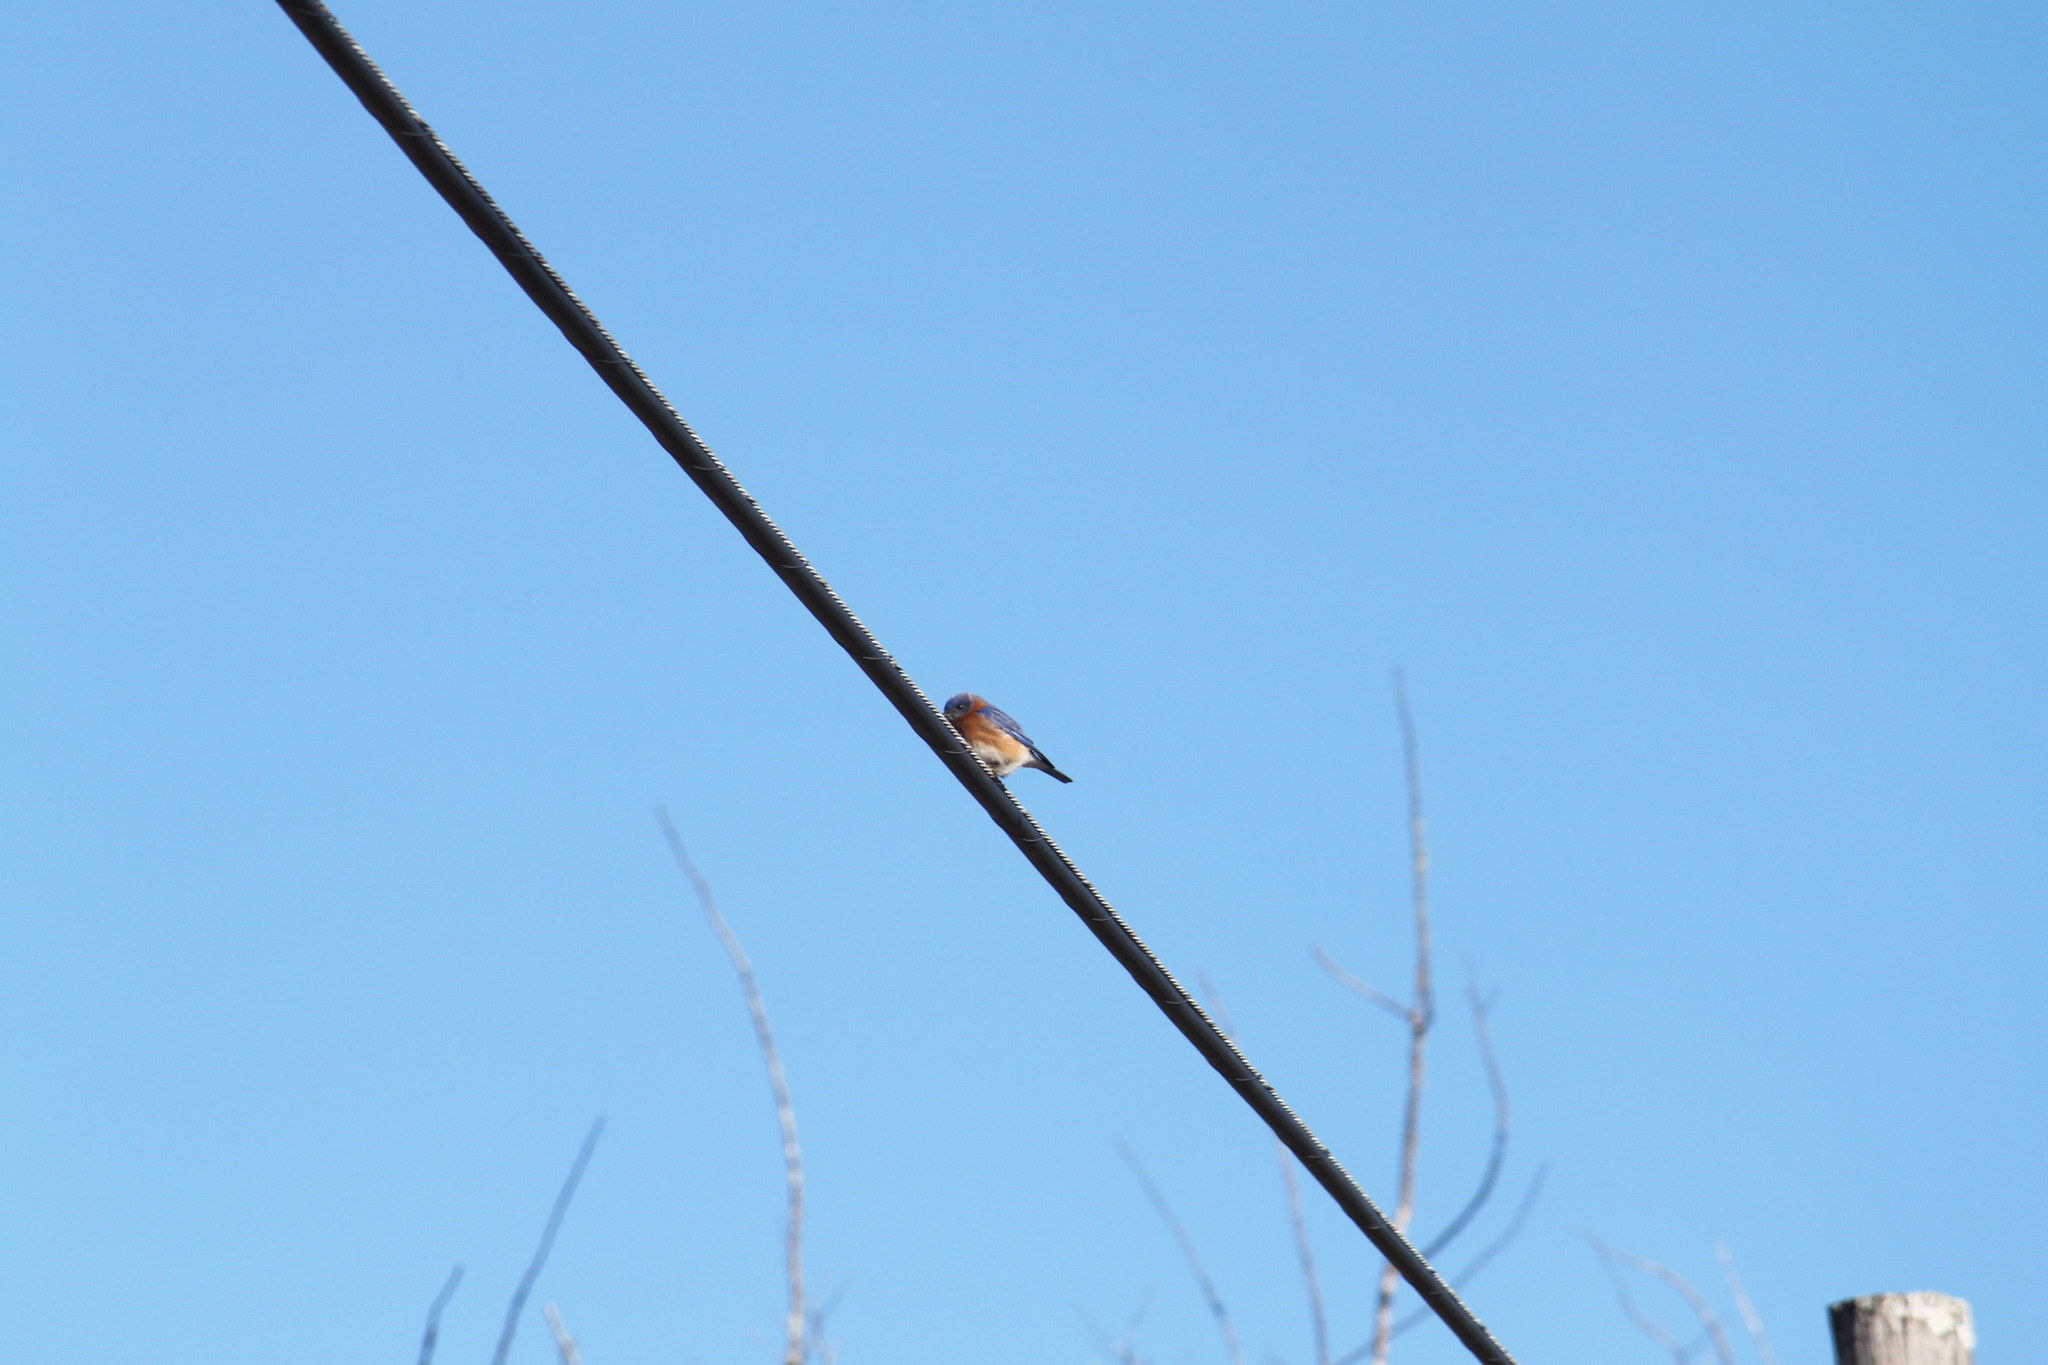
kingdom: Animalia
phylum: Chordata
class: Aves
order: Passeriformes
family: Turdidae
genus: Sialia
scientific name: Sialia sialis
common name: Eastern bluebird
